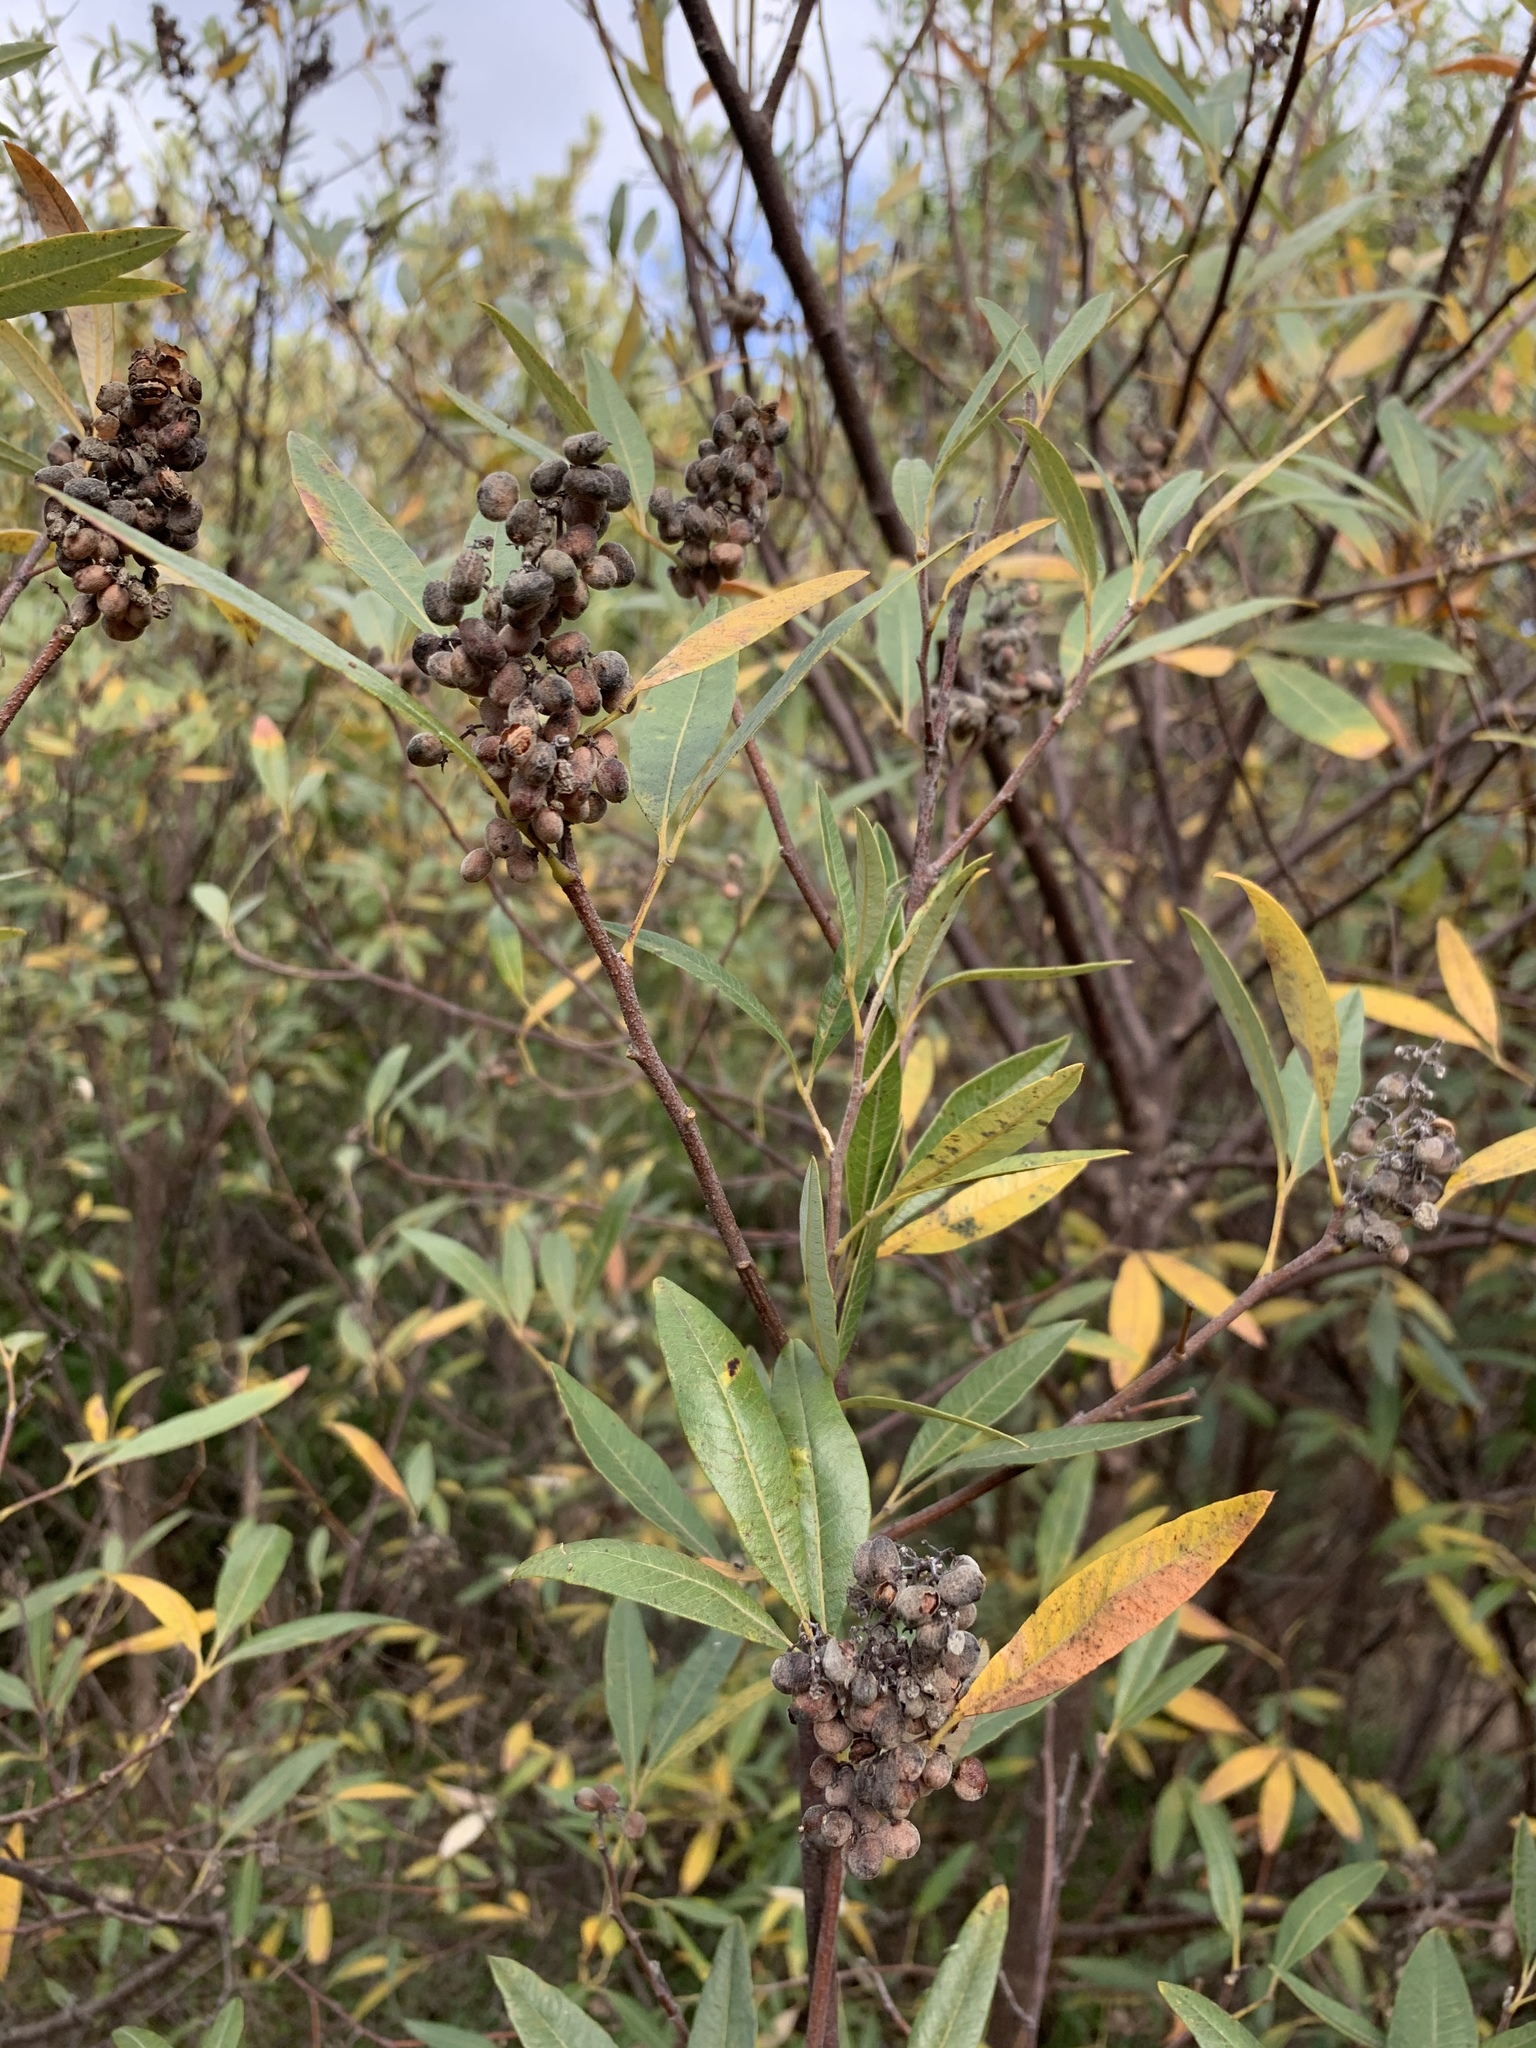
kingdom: Plantae
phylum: Tracheophyta
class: Magnoliopsida
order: Sapindales
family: Anacardiaceae
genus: Searsia
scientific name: Searsia angustifolia
